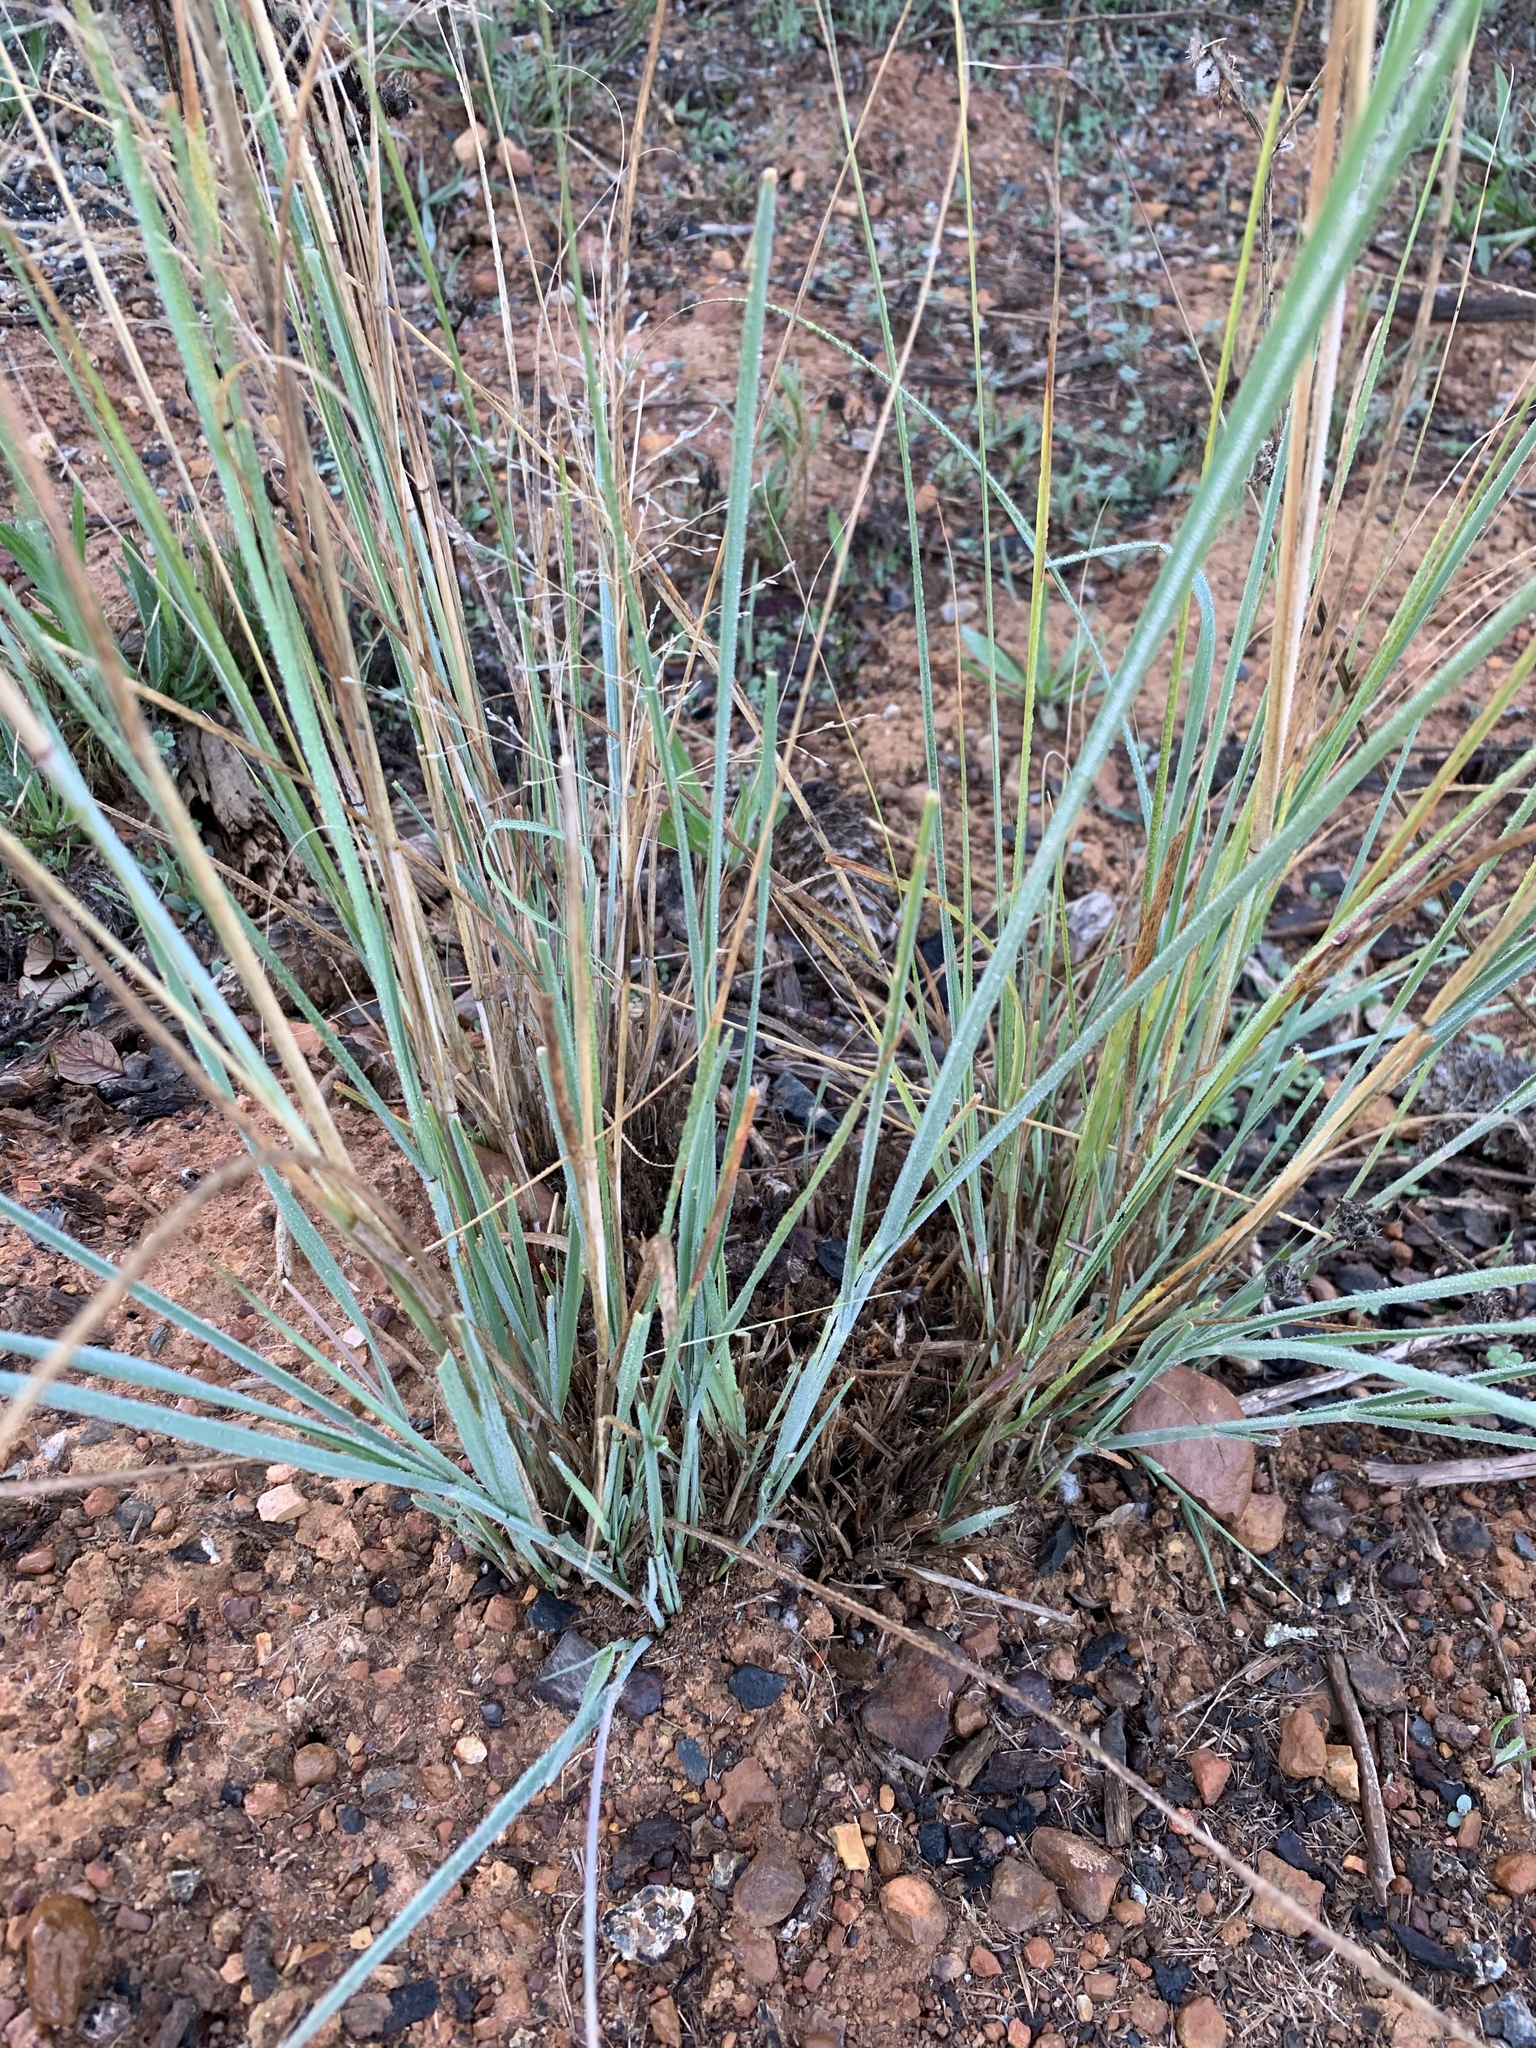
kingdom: Plantae
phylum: Tracheophyta
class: Liliopsida
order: Poales
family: Poaceae
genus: Eragrostis
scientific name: Eragrostis curvula
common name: African love-grass
